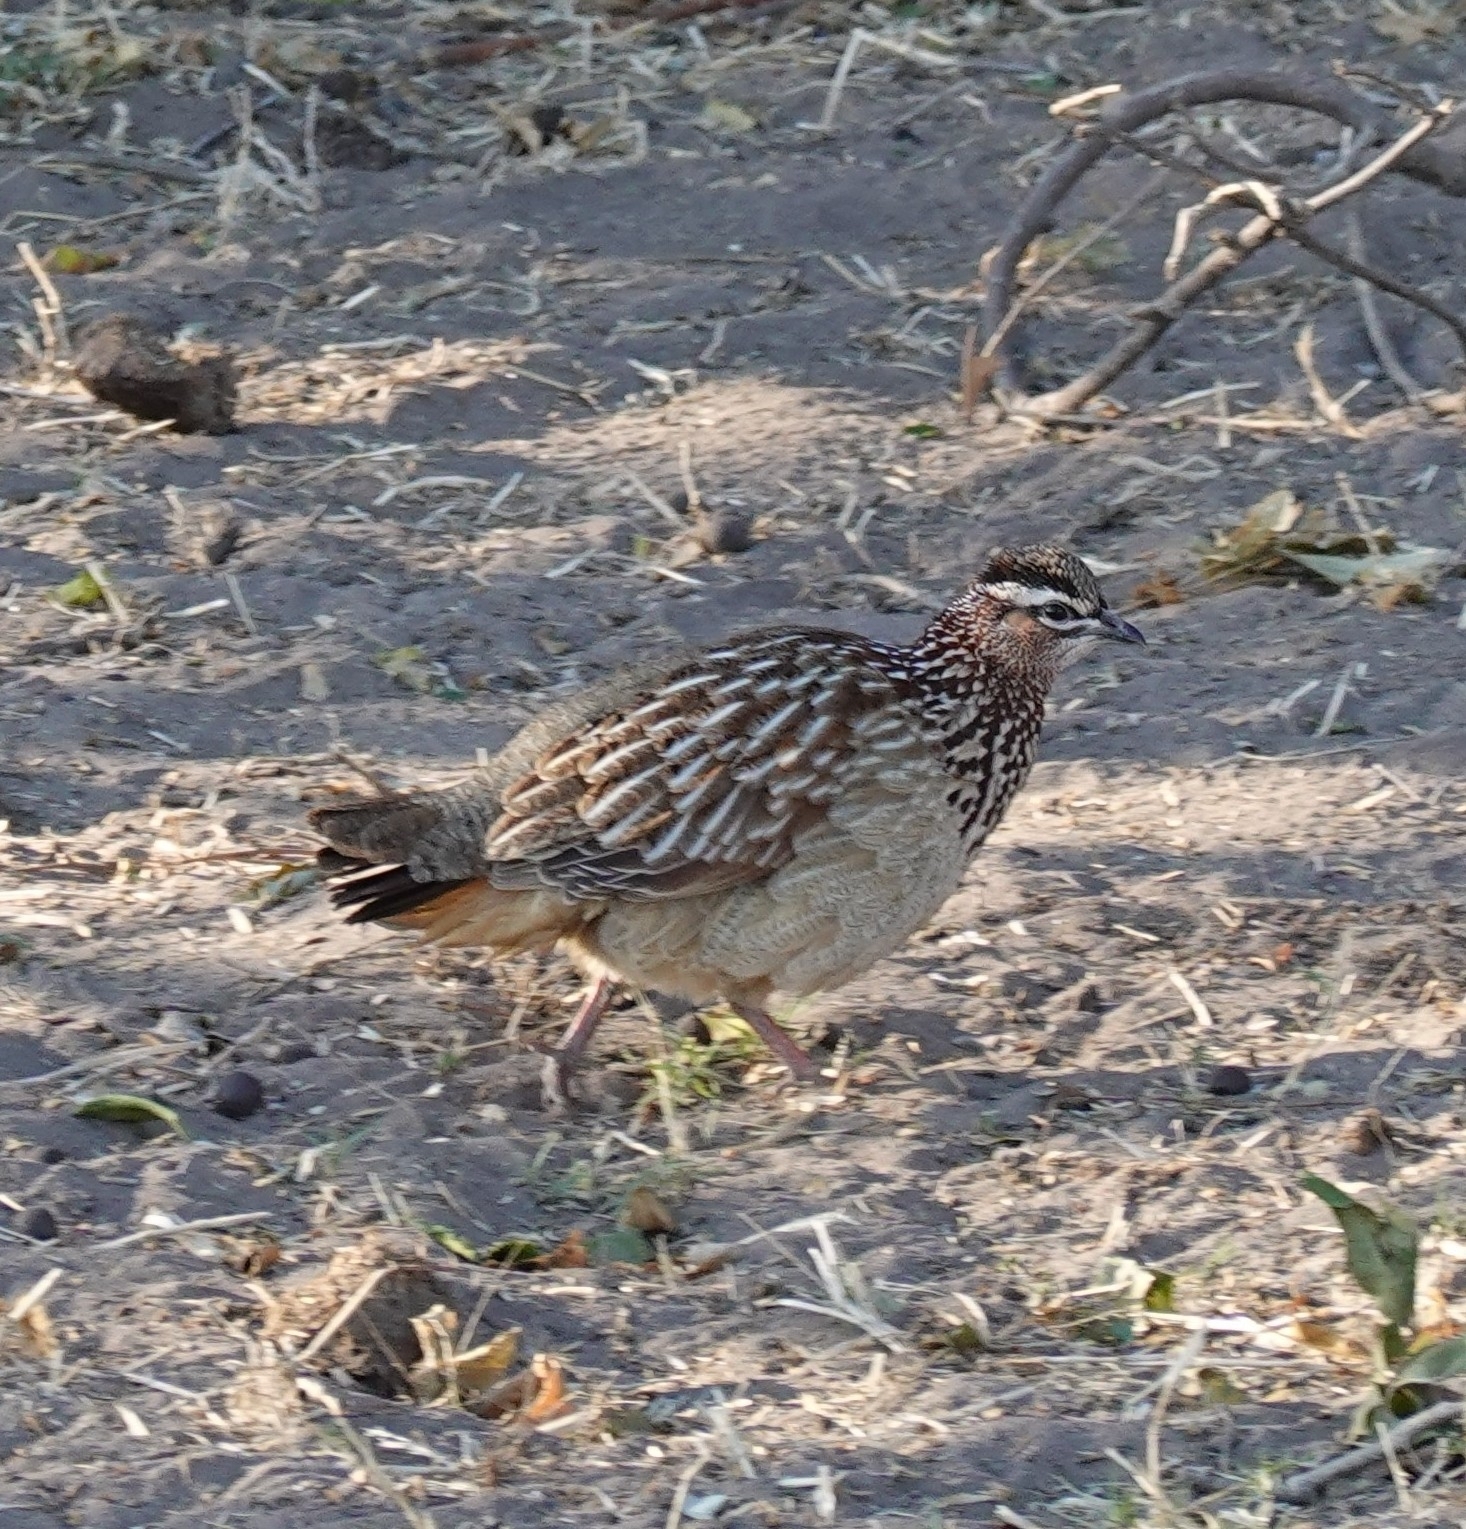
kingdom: Animalia
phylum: Chordata
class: Aves
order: Galliformes
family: Phasianidae
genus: Ortygornis
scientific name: Ortygornis sephaena
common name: Crested francolin
